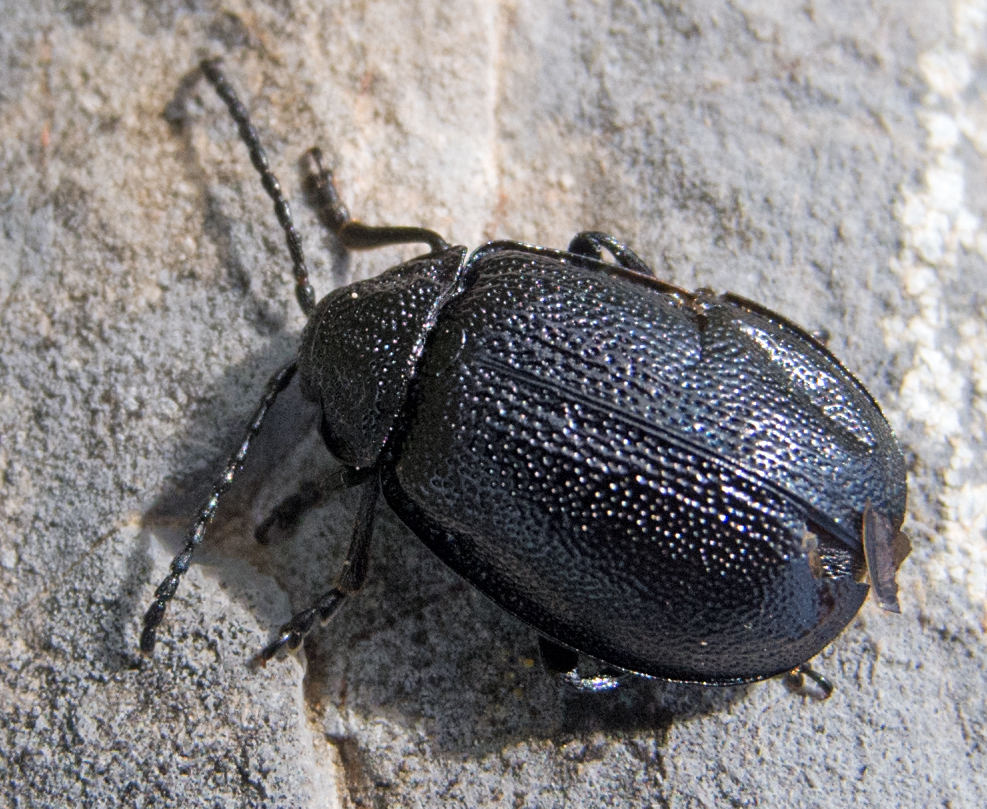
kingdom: Animalia
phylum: Arthropoda
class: Insecta
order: Coleoptera
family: Chrysomelidae
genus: Galeruca
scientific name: Galeruca tanaceti
